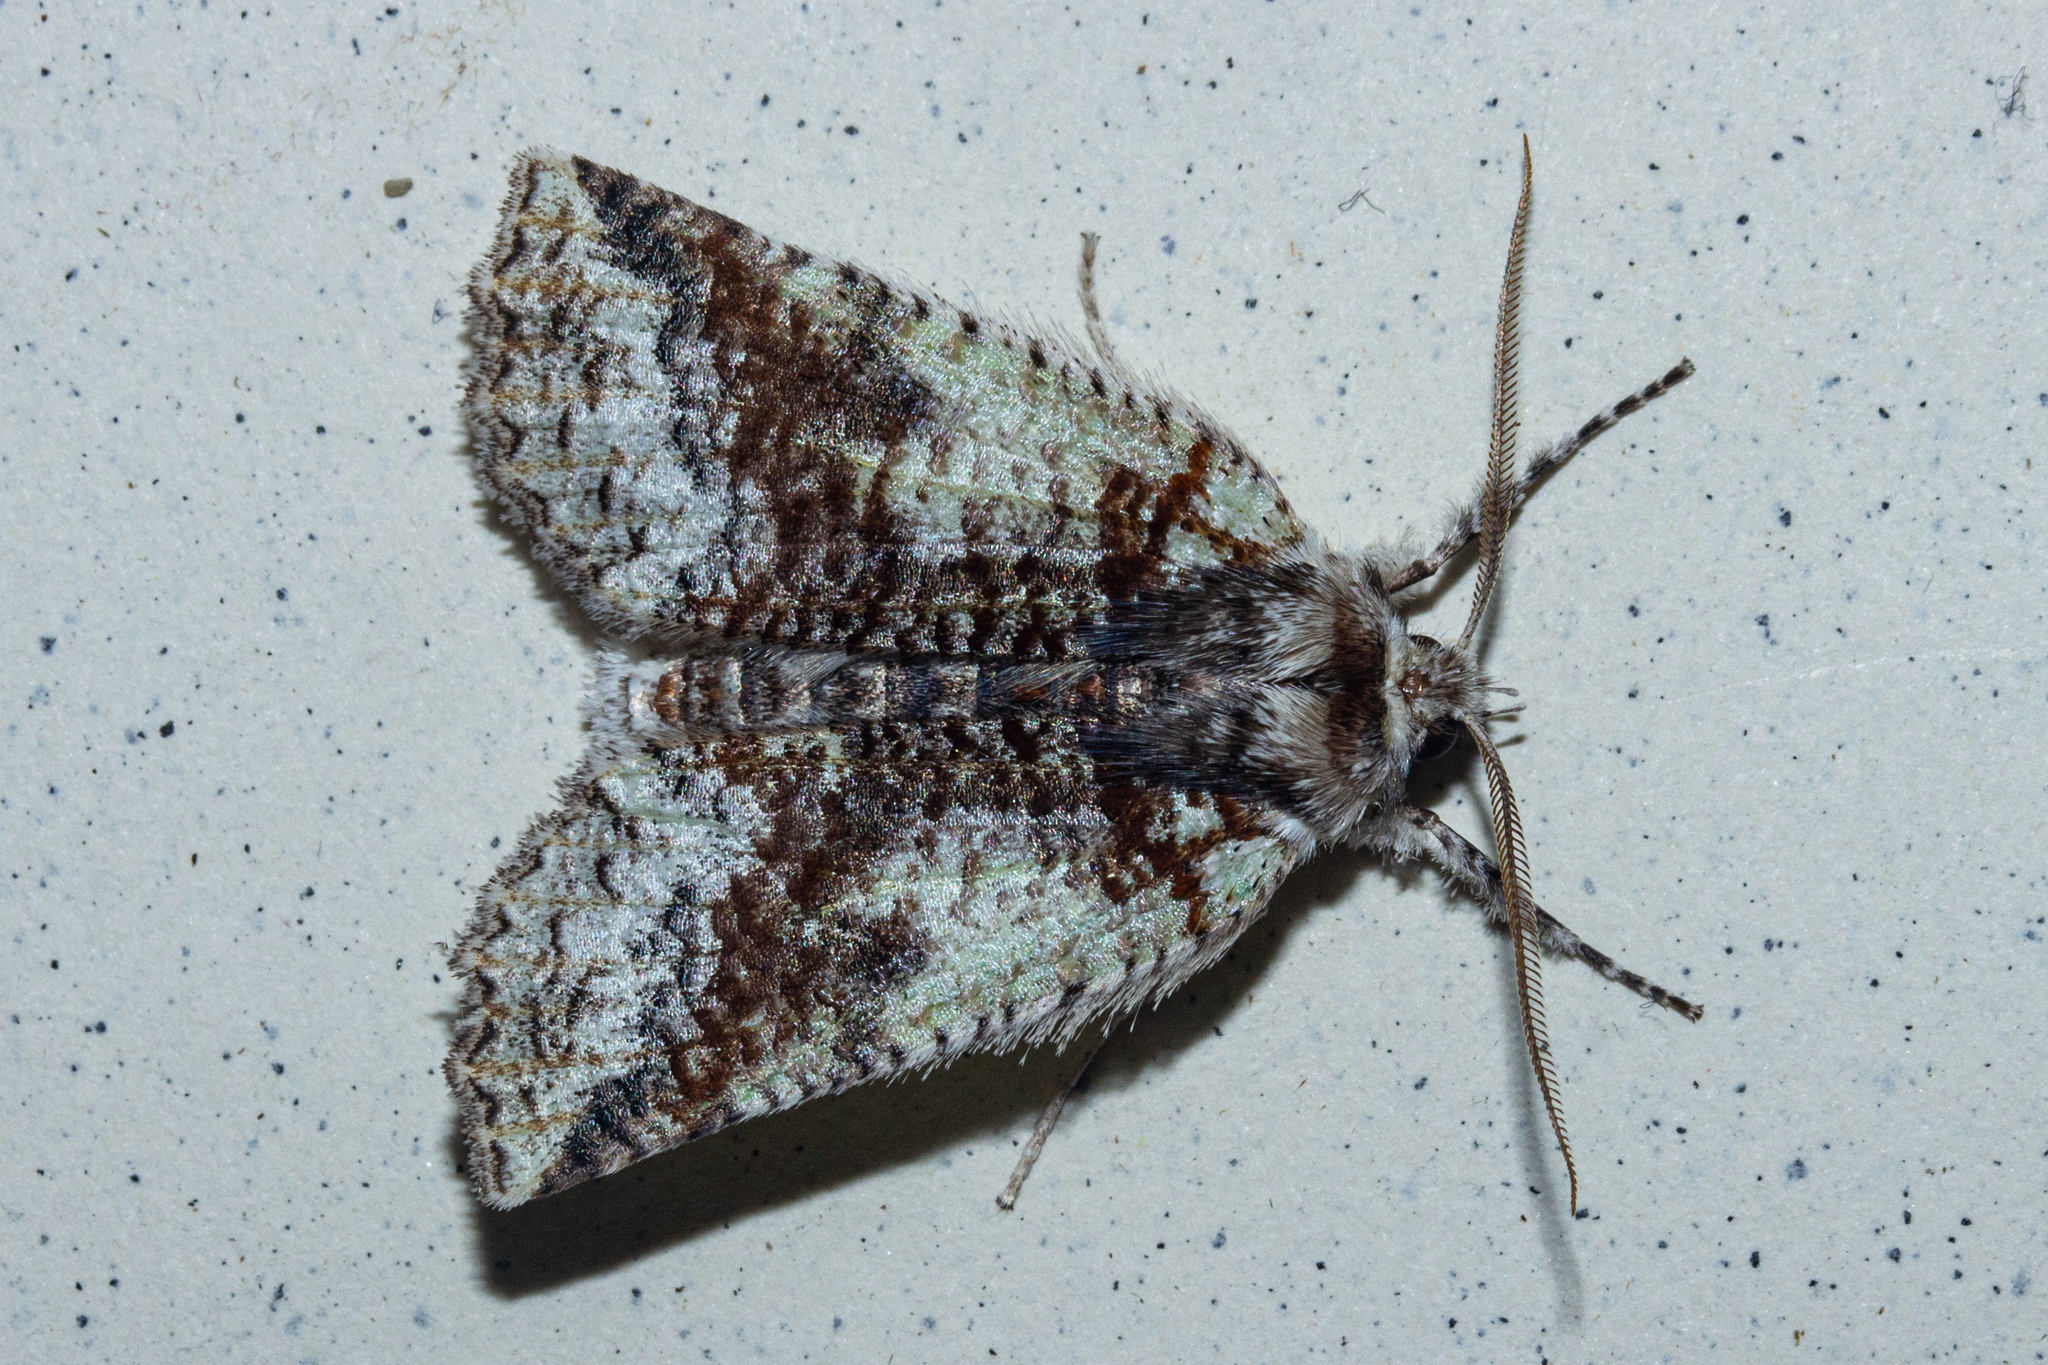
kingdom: Animalia
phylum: Arthropoda
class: Insecta
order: Lepidoptera
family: Geometridae
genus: Declana
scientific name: Declana floccosa
